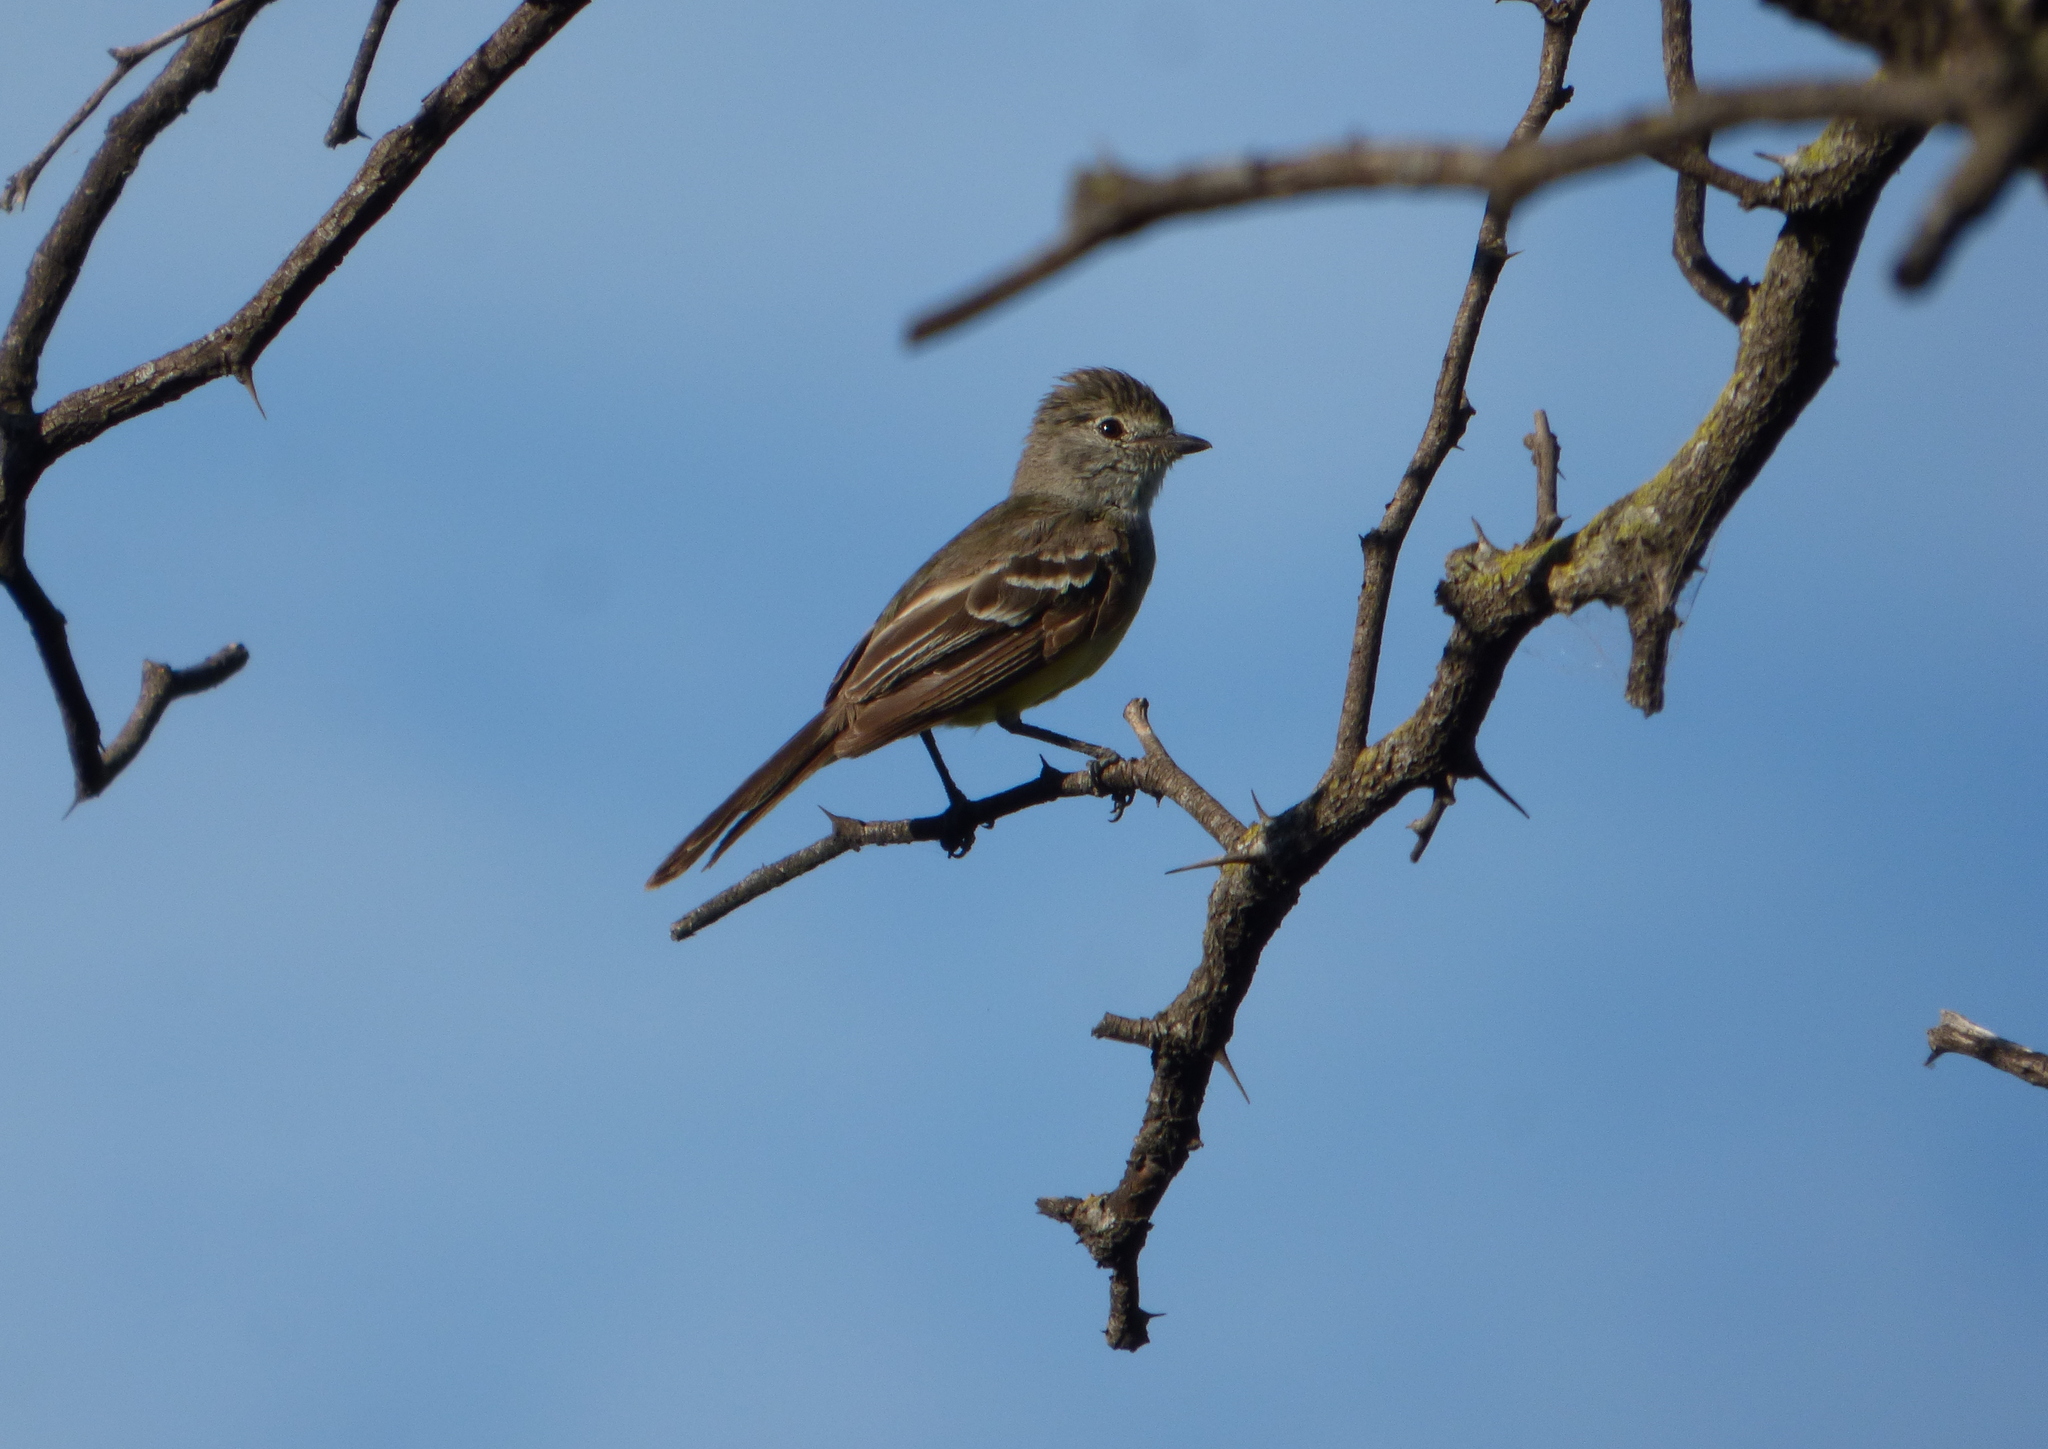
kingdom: Animalia
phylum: Chordata
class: Aves
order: Passeriformes
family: Tyrannidae
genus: Sublegatus
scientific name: Sublegatus modestus
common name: Southern scrub flycatcher
